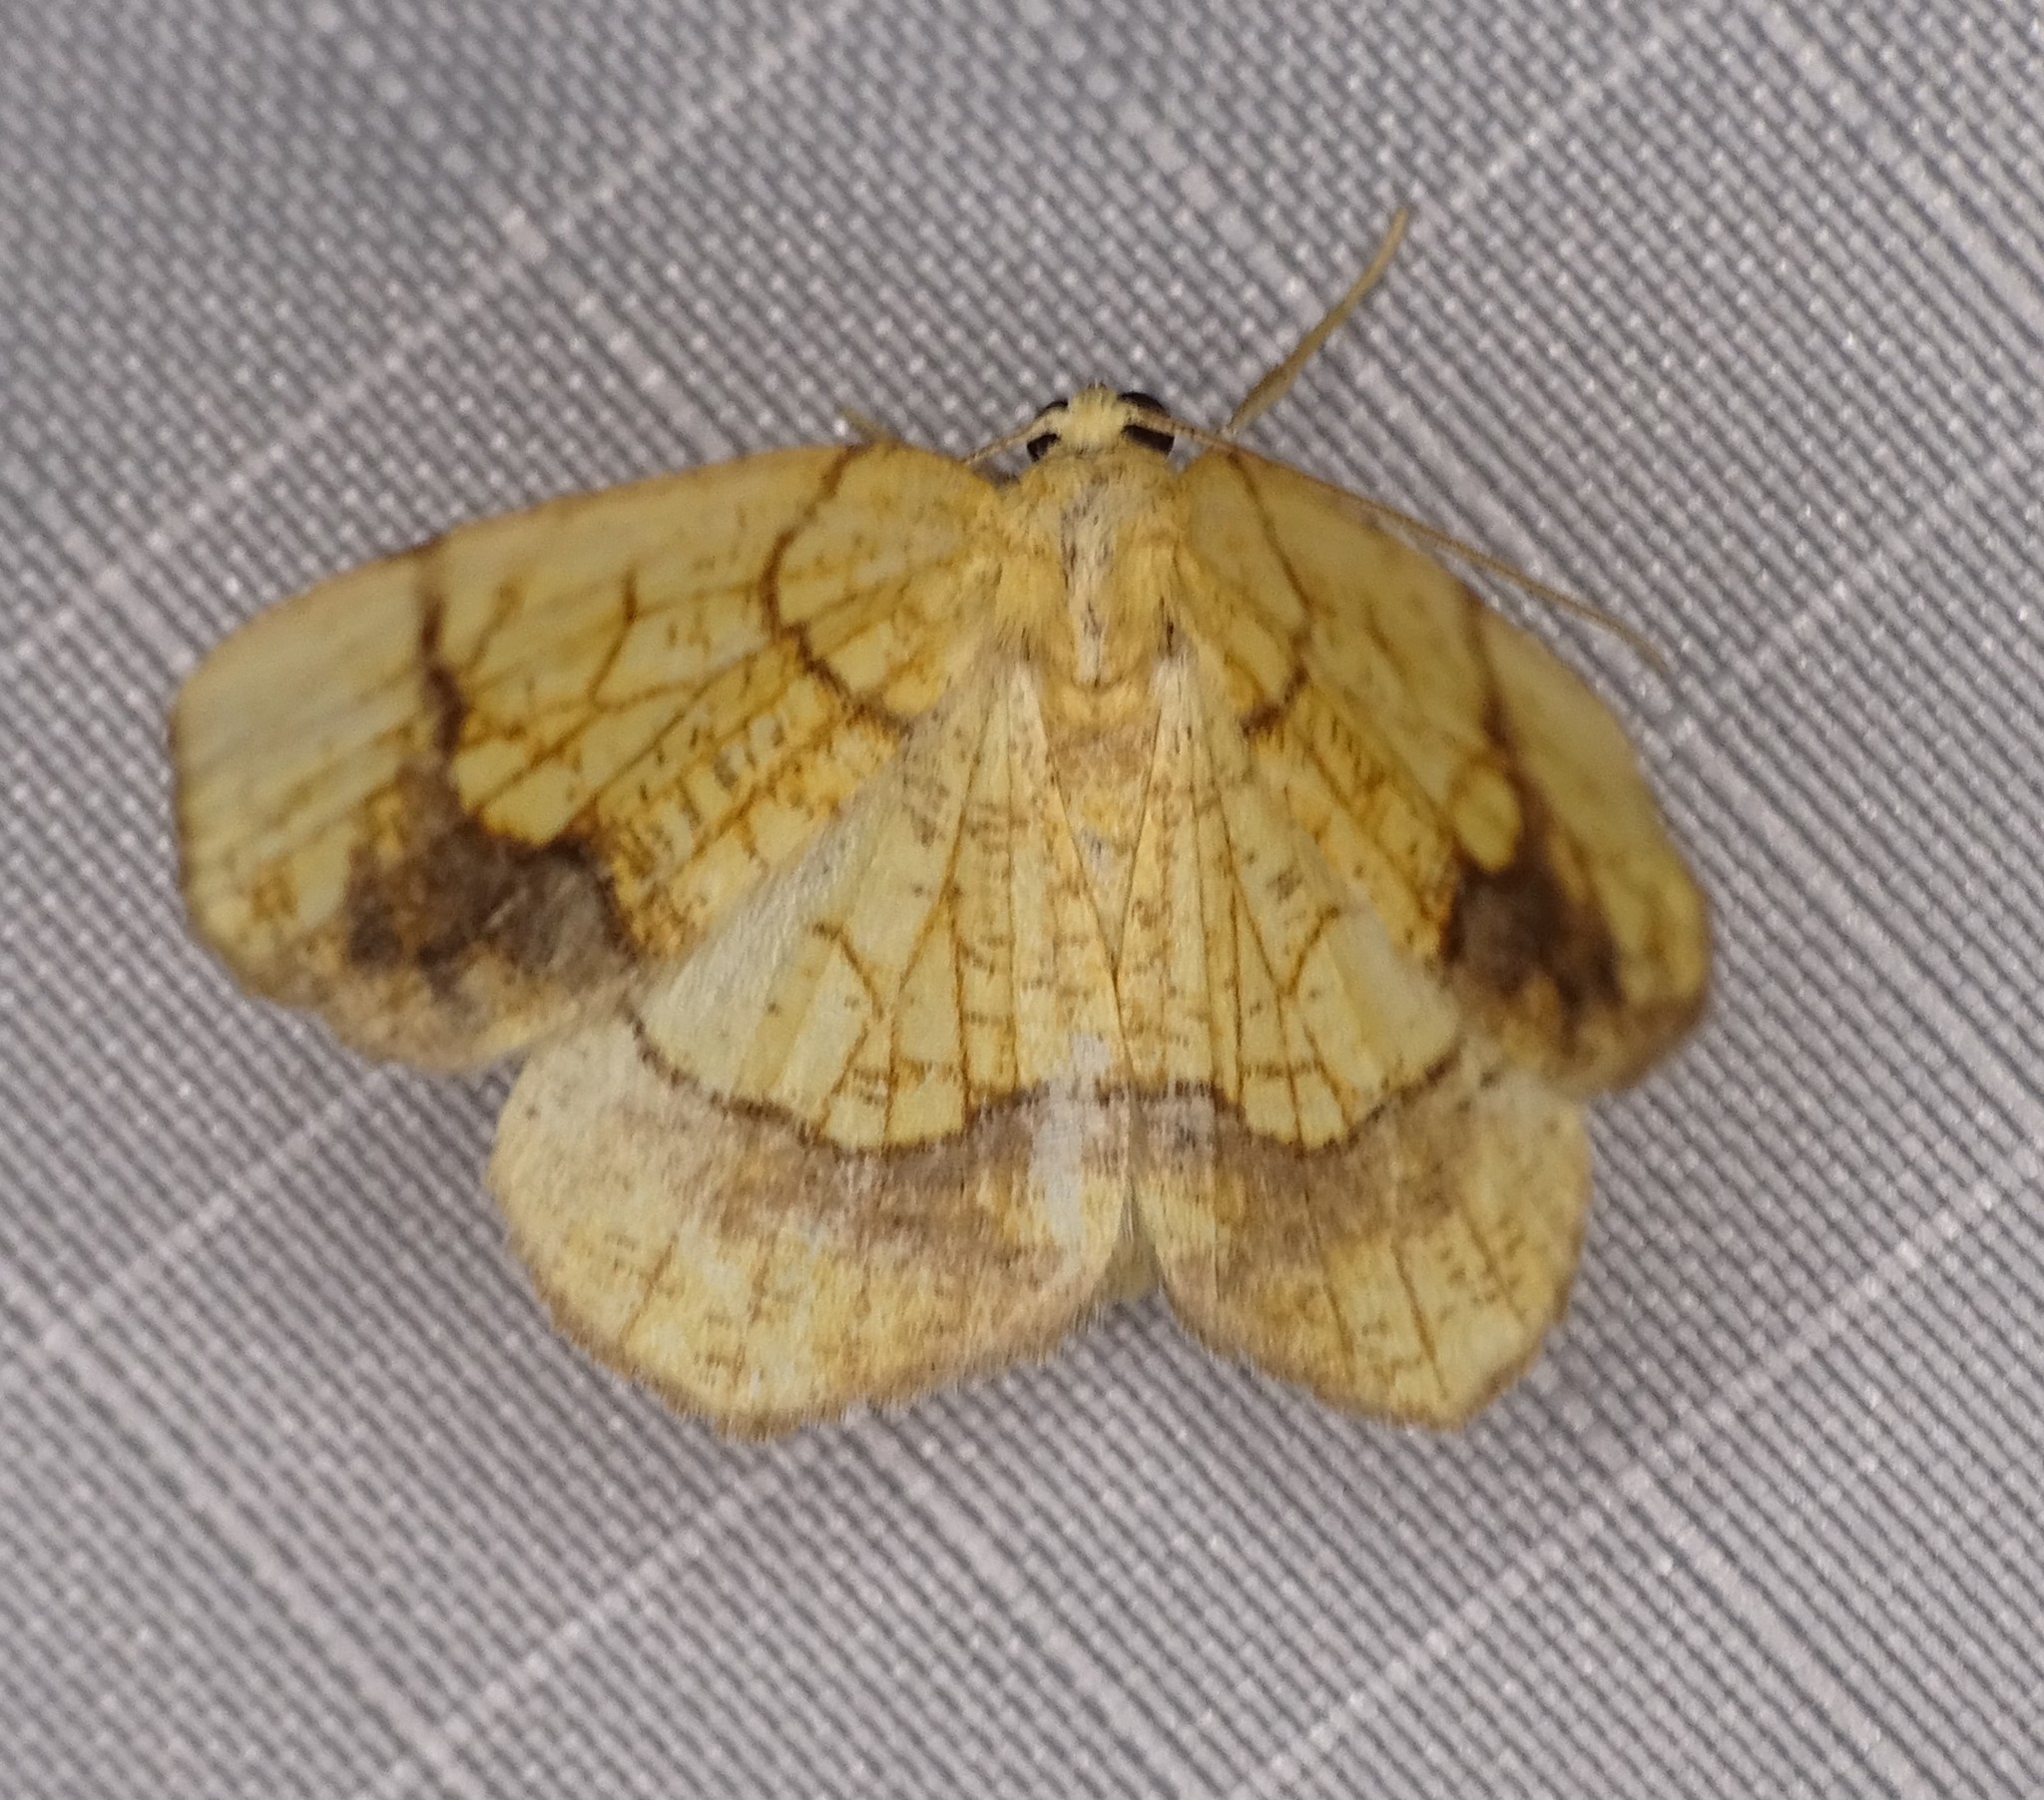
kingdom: Animalia
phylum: Arthropoda
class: Insecta
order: Lepidoptera
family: Geometridae
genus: Nematocampa
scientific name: Nematocampa resistaria
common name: Horned spanworm moth
